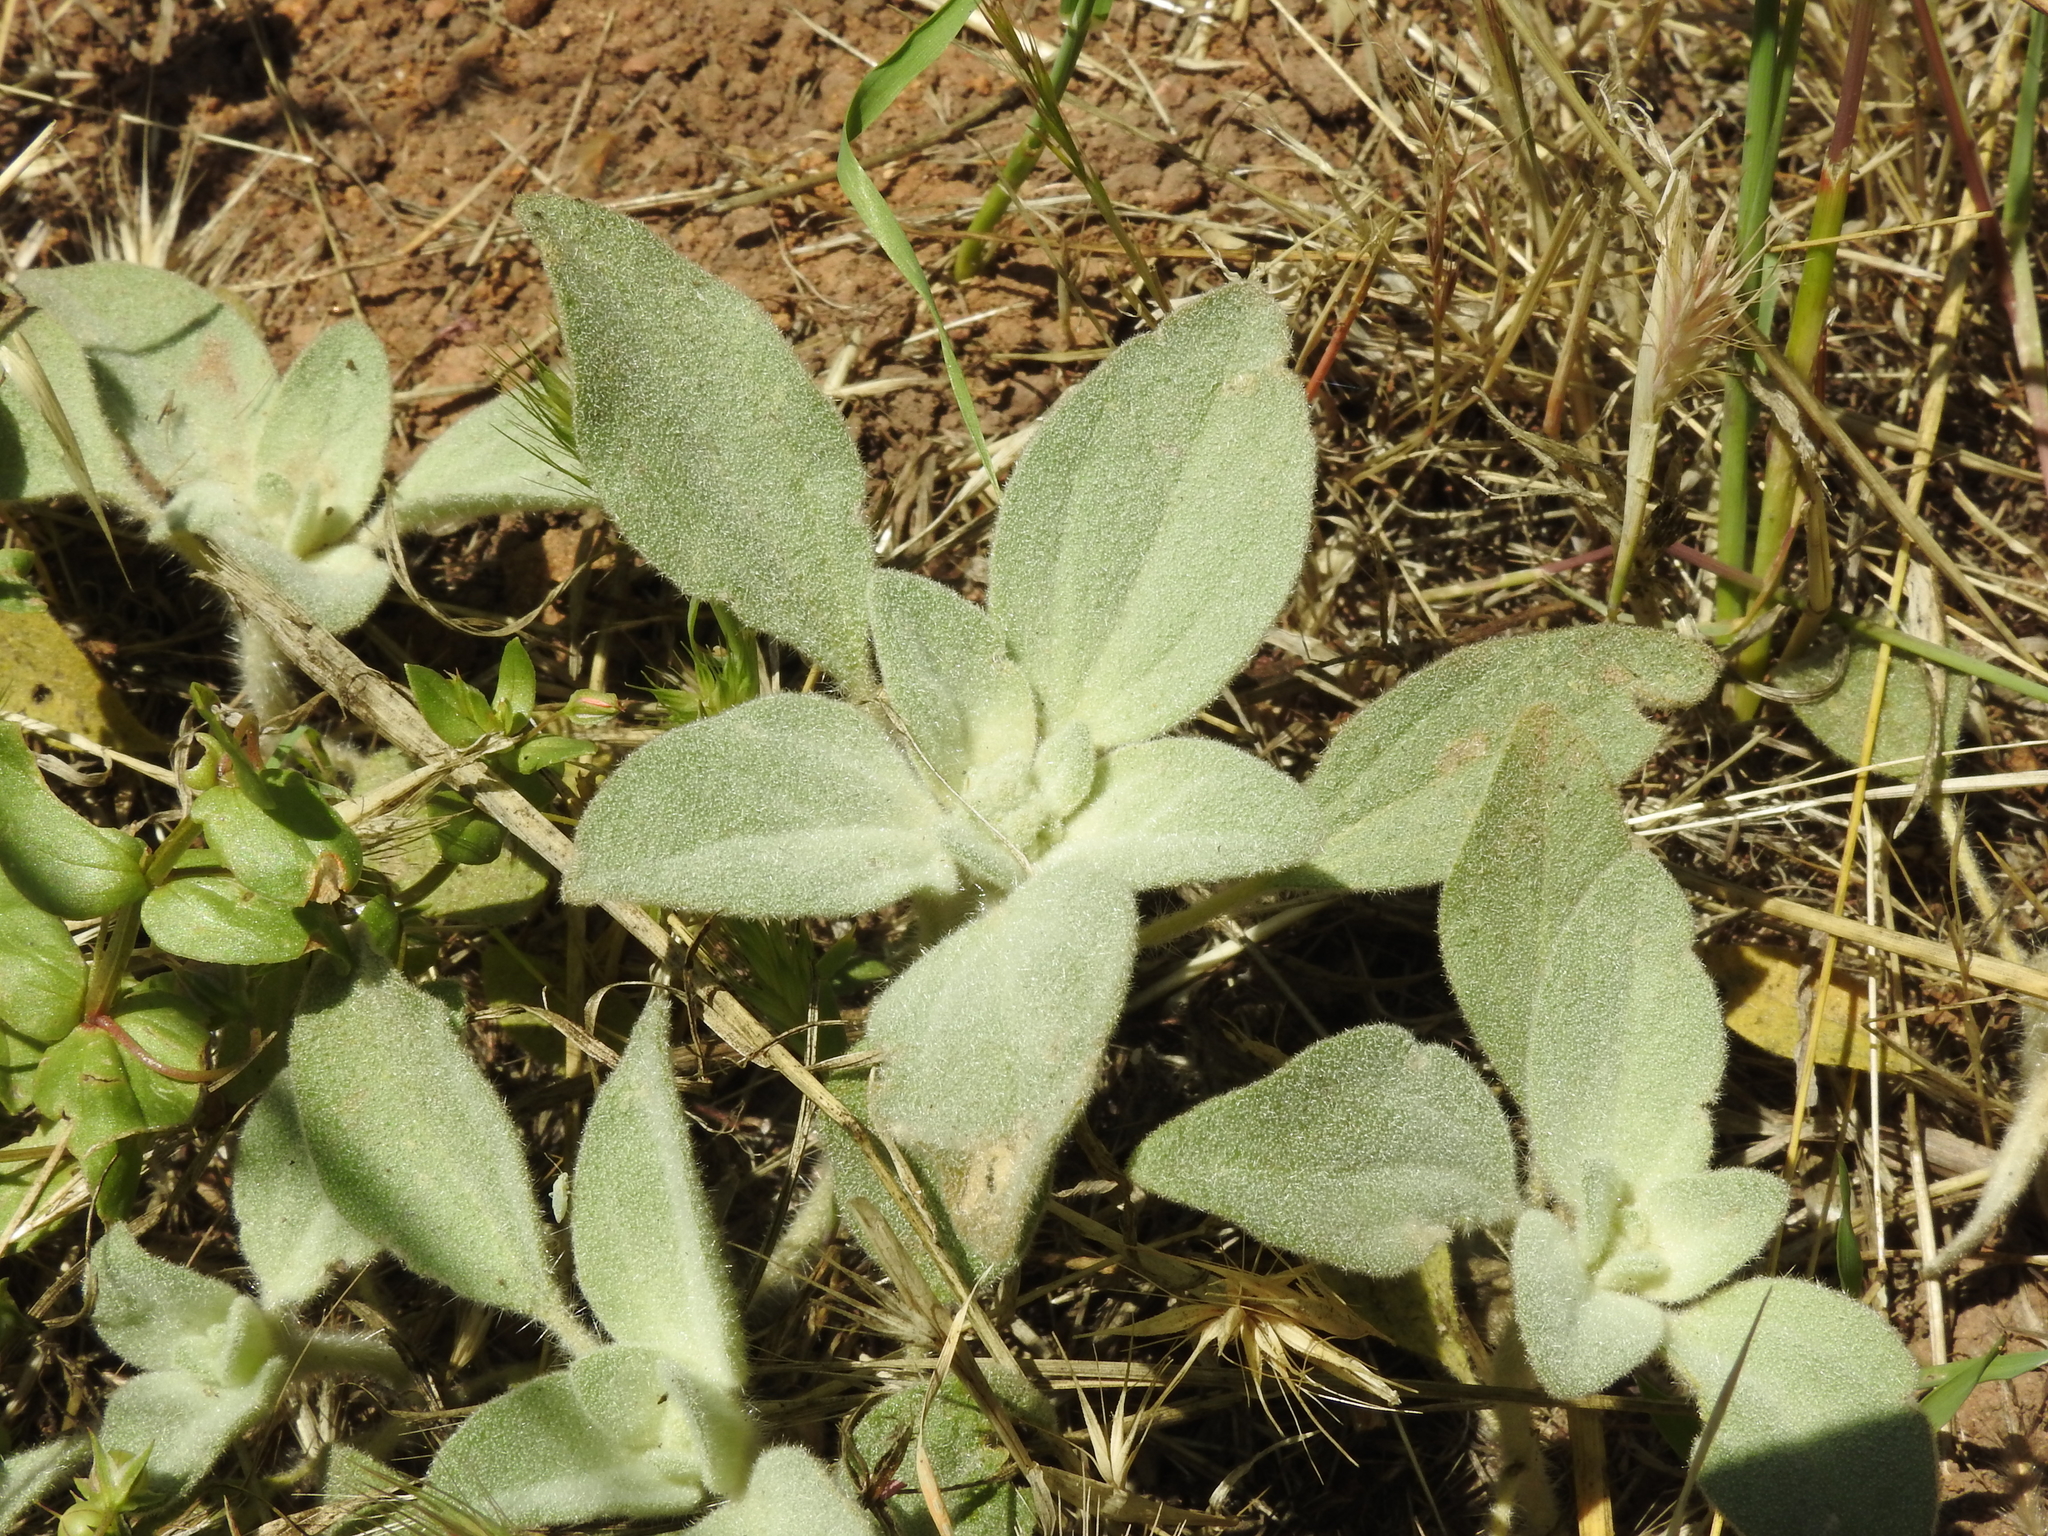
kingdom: Plantae
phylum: Tracheophyta
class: Magnoliopsida
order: Malpighiales
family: Euphorbiaceae
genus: Croton
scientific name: Croton setiger
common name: Dove weed
